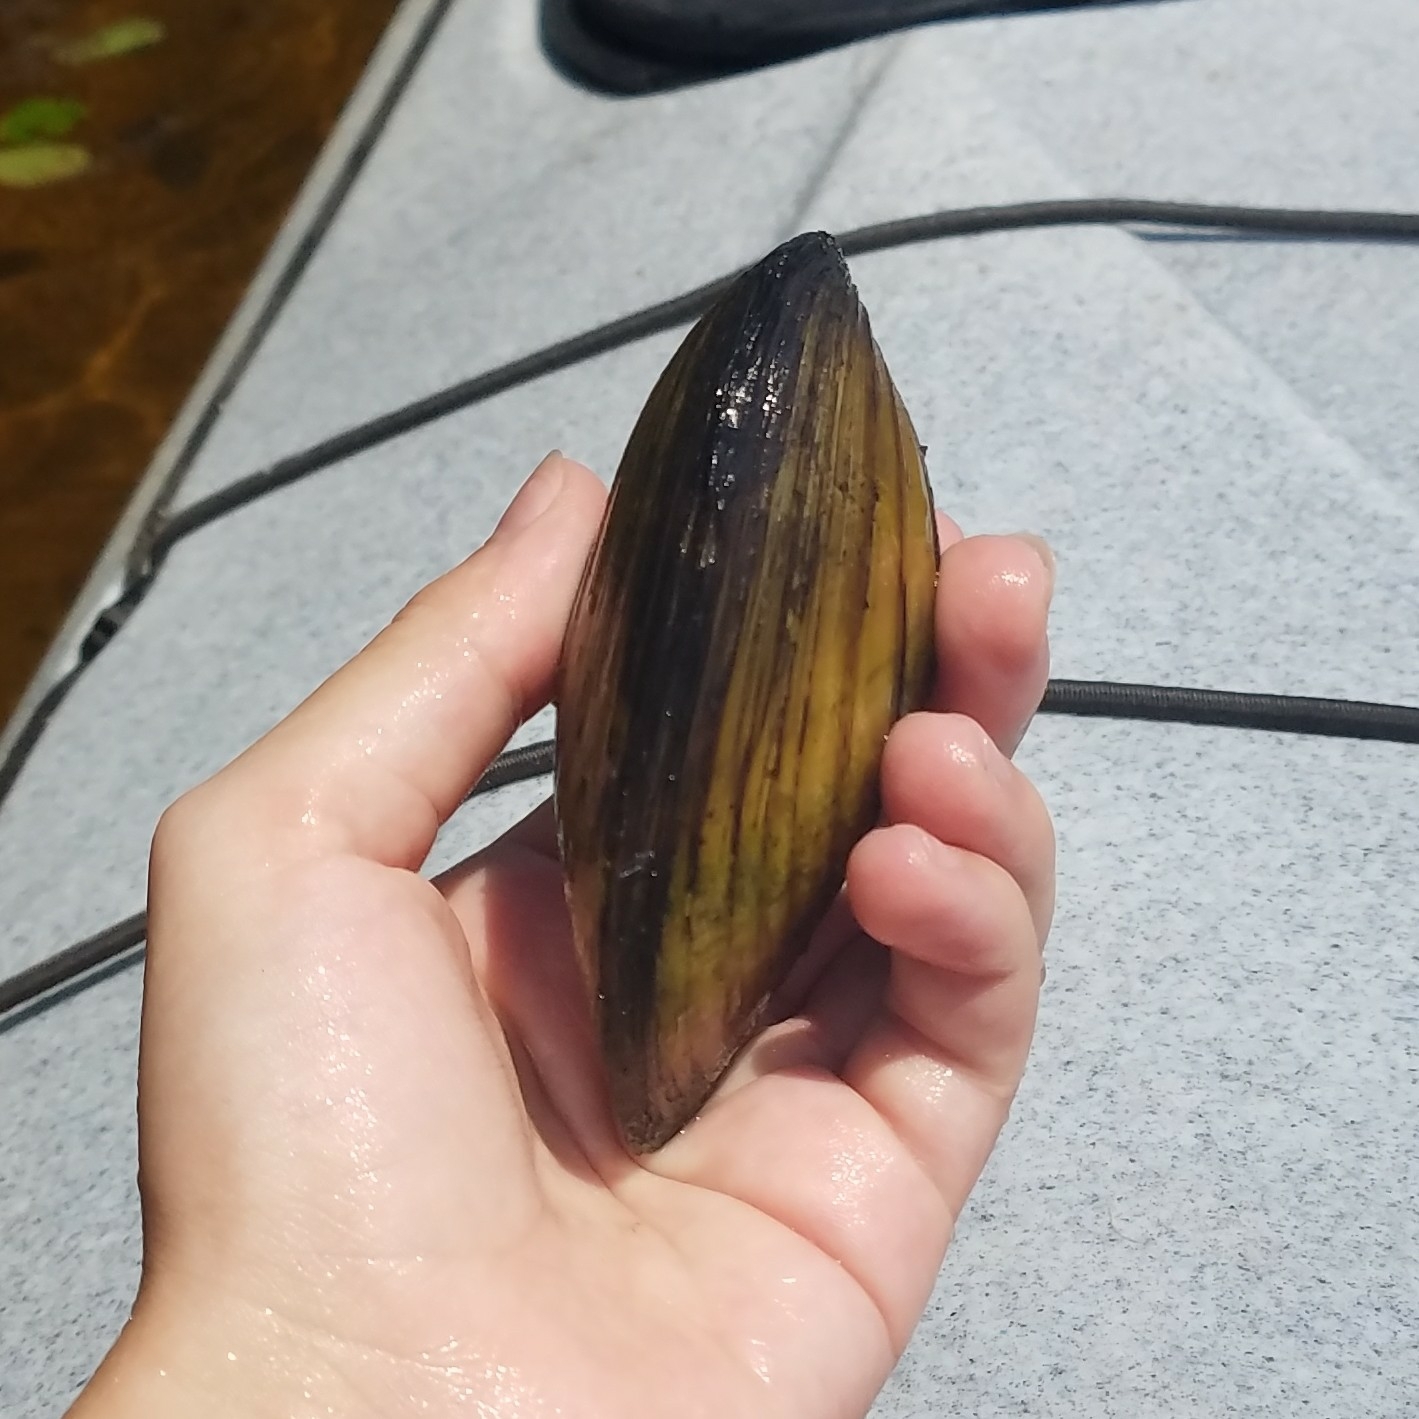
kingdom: Animalia
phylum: Mollusca
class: Bivalvia
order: Unionida
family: Unionidae
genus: Lampsilis
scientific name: Lampsilis siliquoidea
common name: Fatmucket
